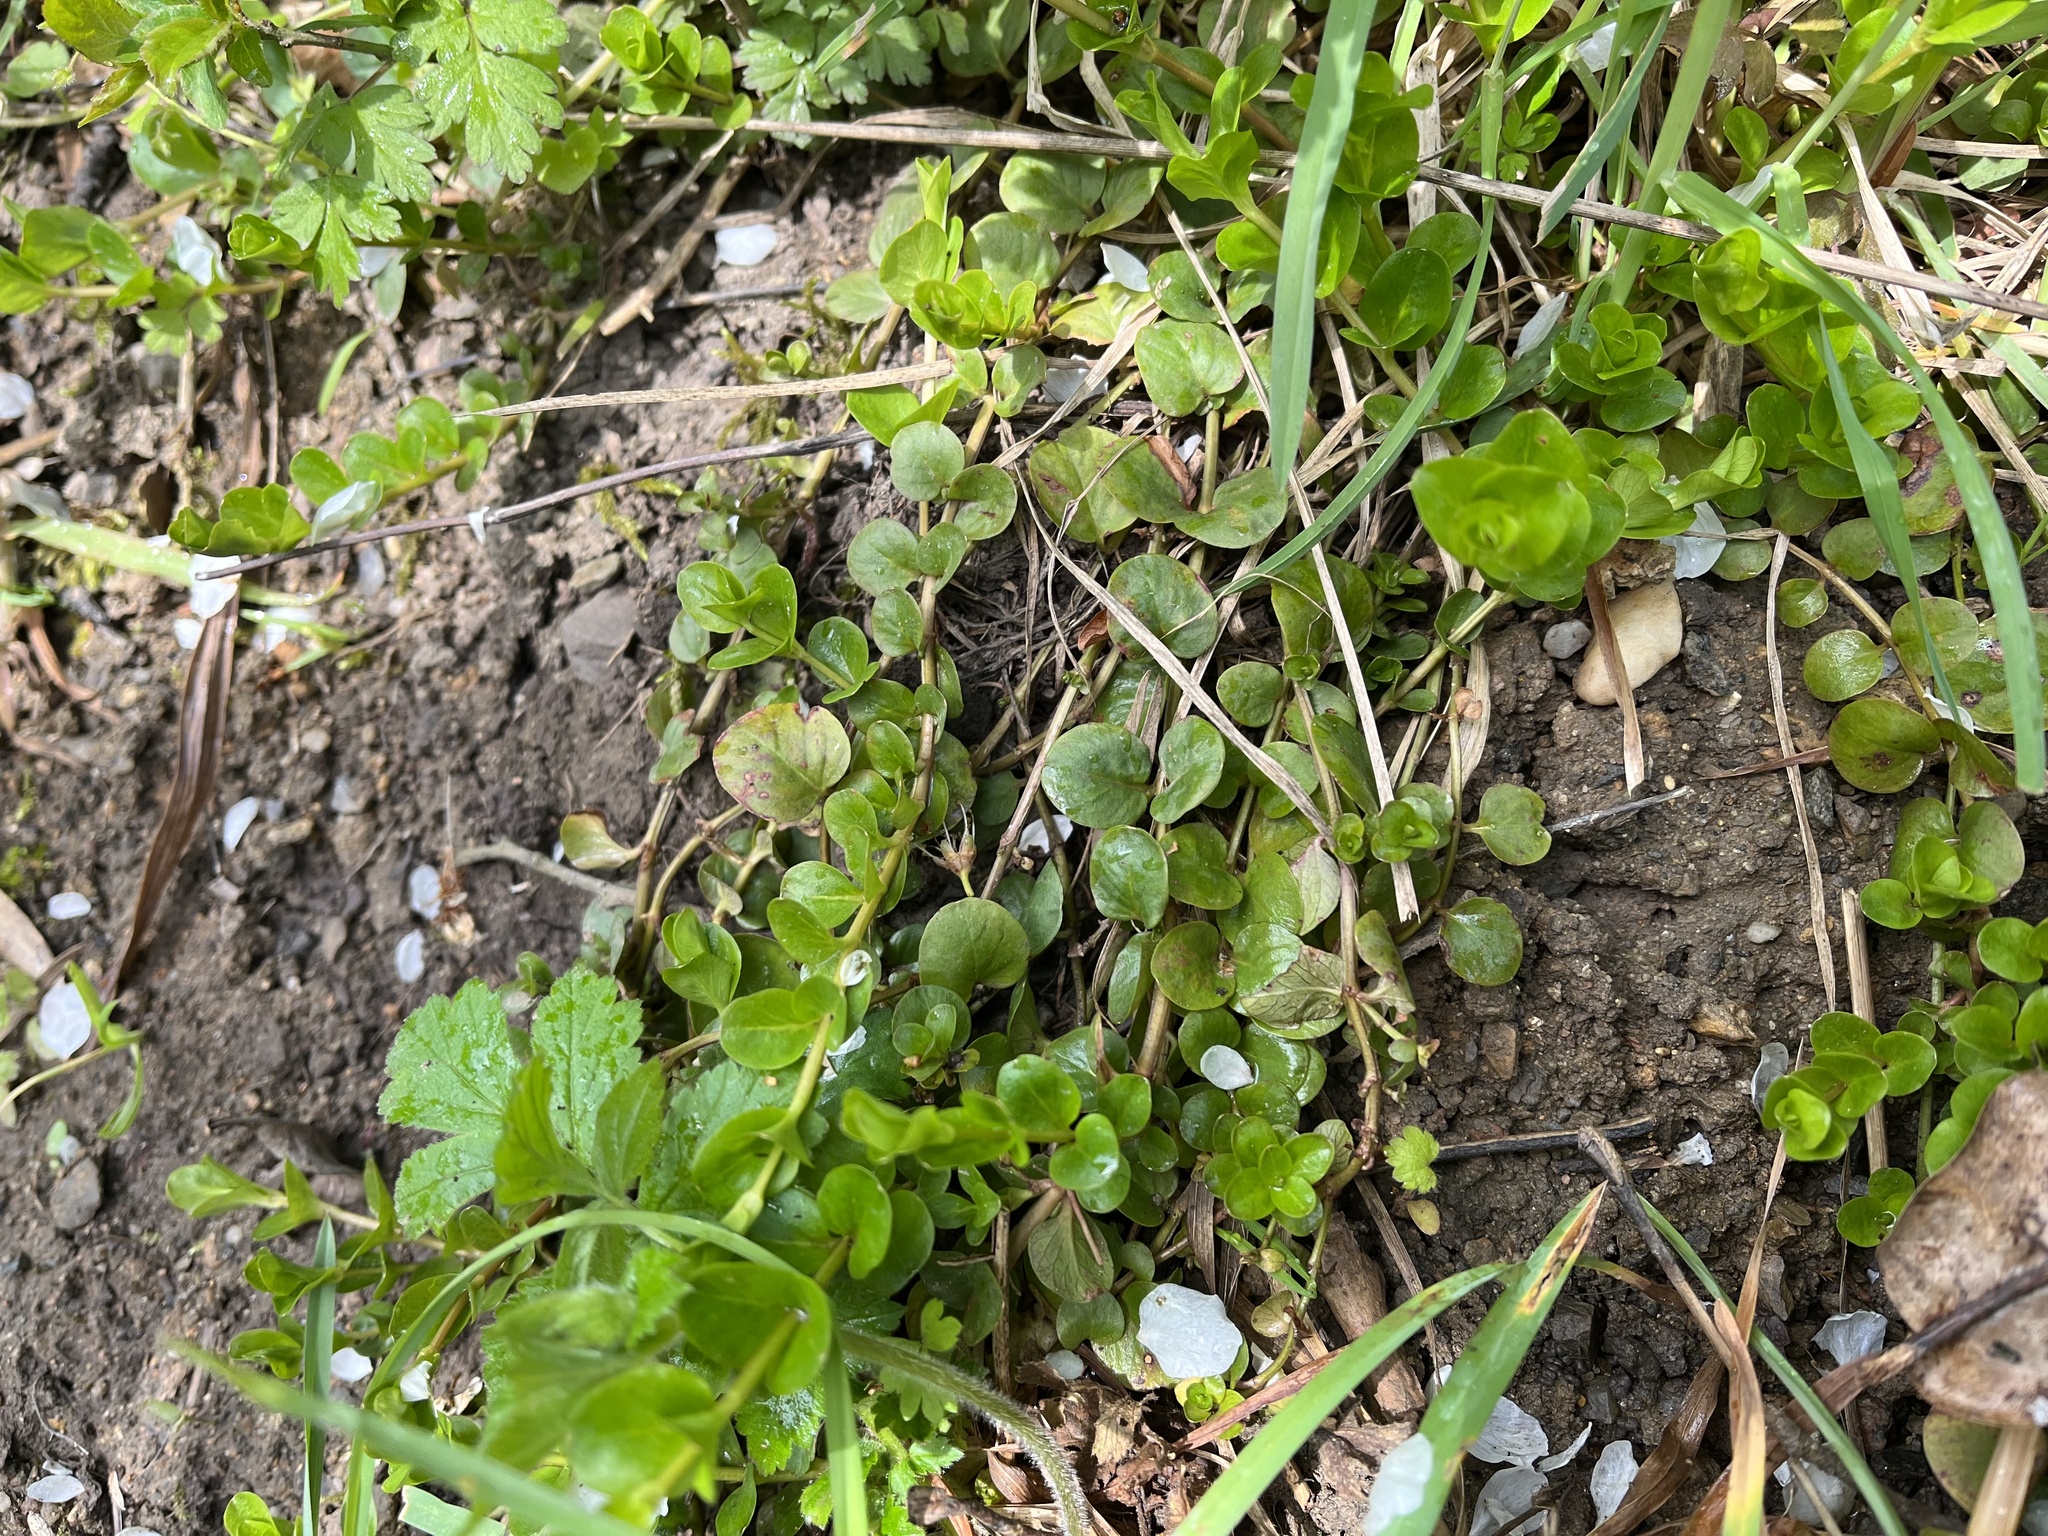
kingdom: Plantae
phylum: Tracheophyta
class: Magnoliopsida
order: Ericales
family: Primulaceae
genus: Lysimachia
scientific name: Lysimachia nummularia
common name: Moneywort
